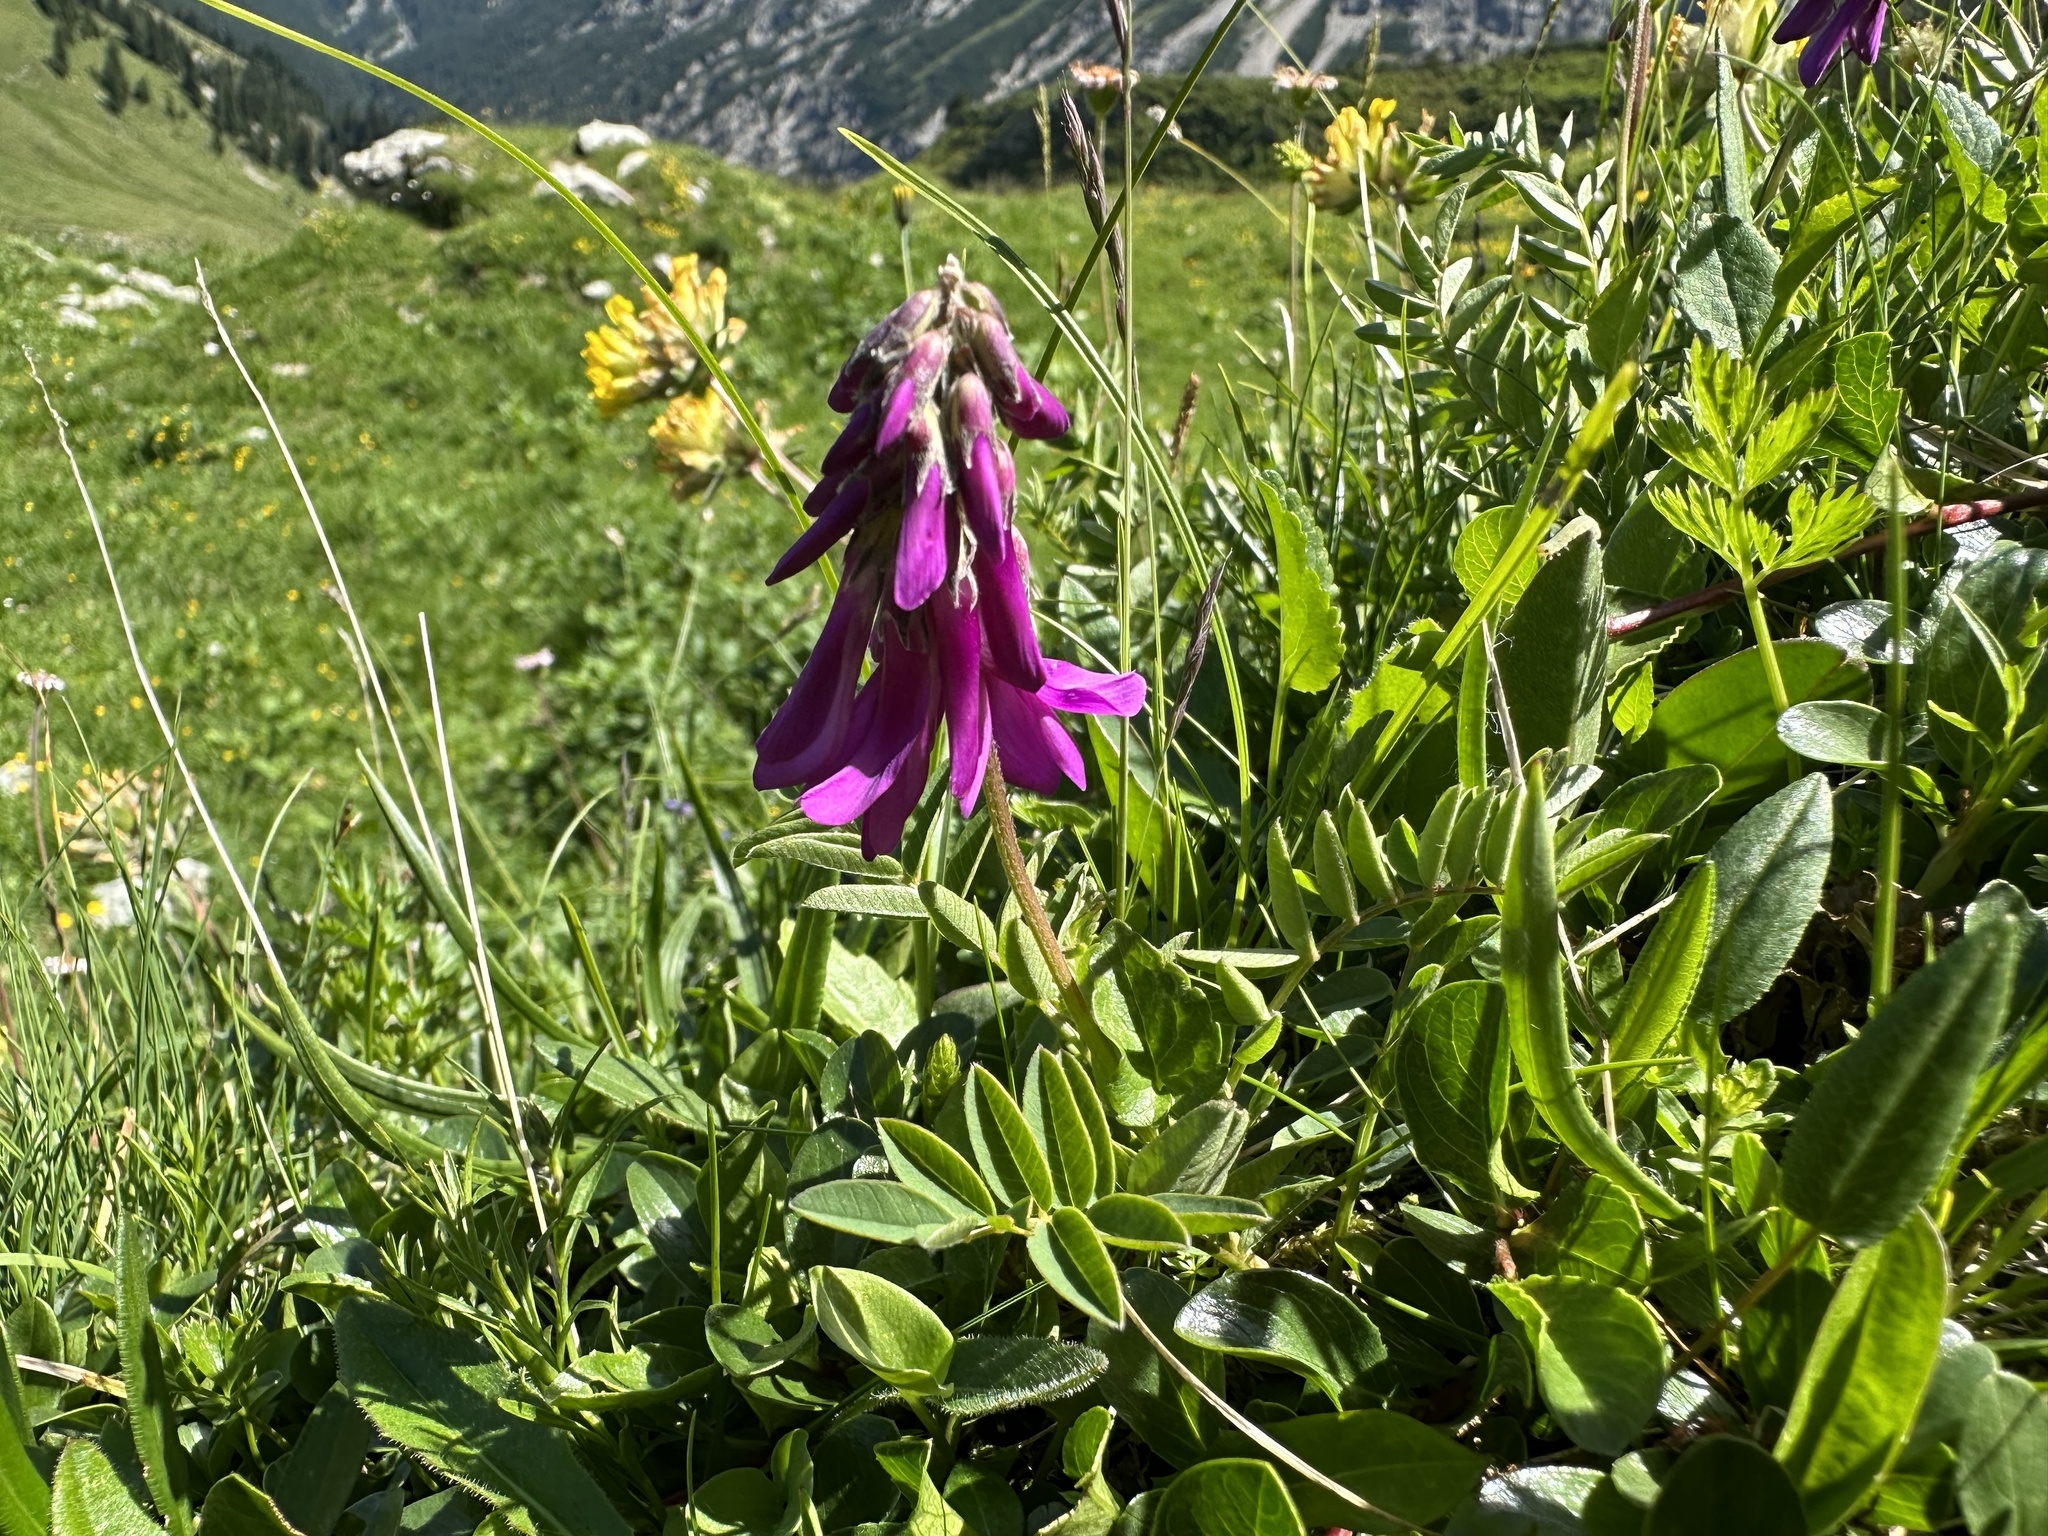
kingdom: Plantae
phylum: Tracheophyta
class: Magnoliopsida
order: Fabales
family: Fabaceae
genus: Hedysarum
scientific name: Hedysarum hedysaroides
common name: Alpine french-honeysuckle
